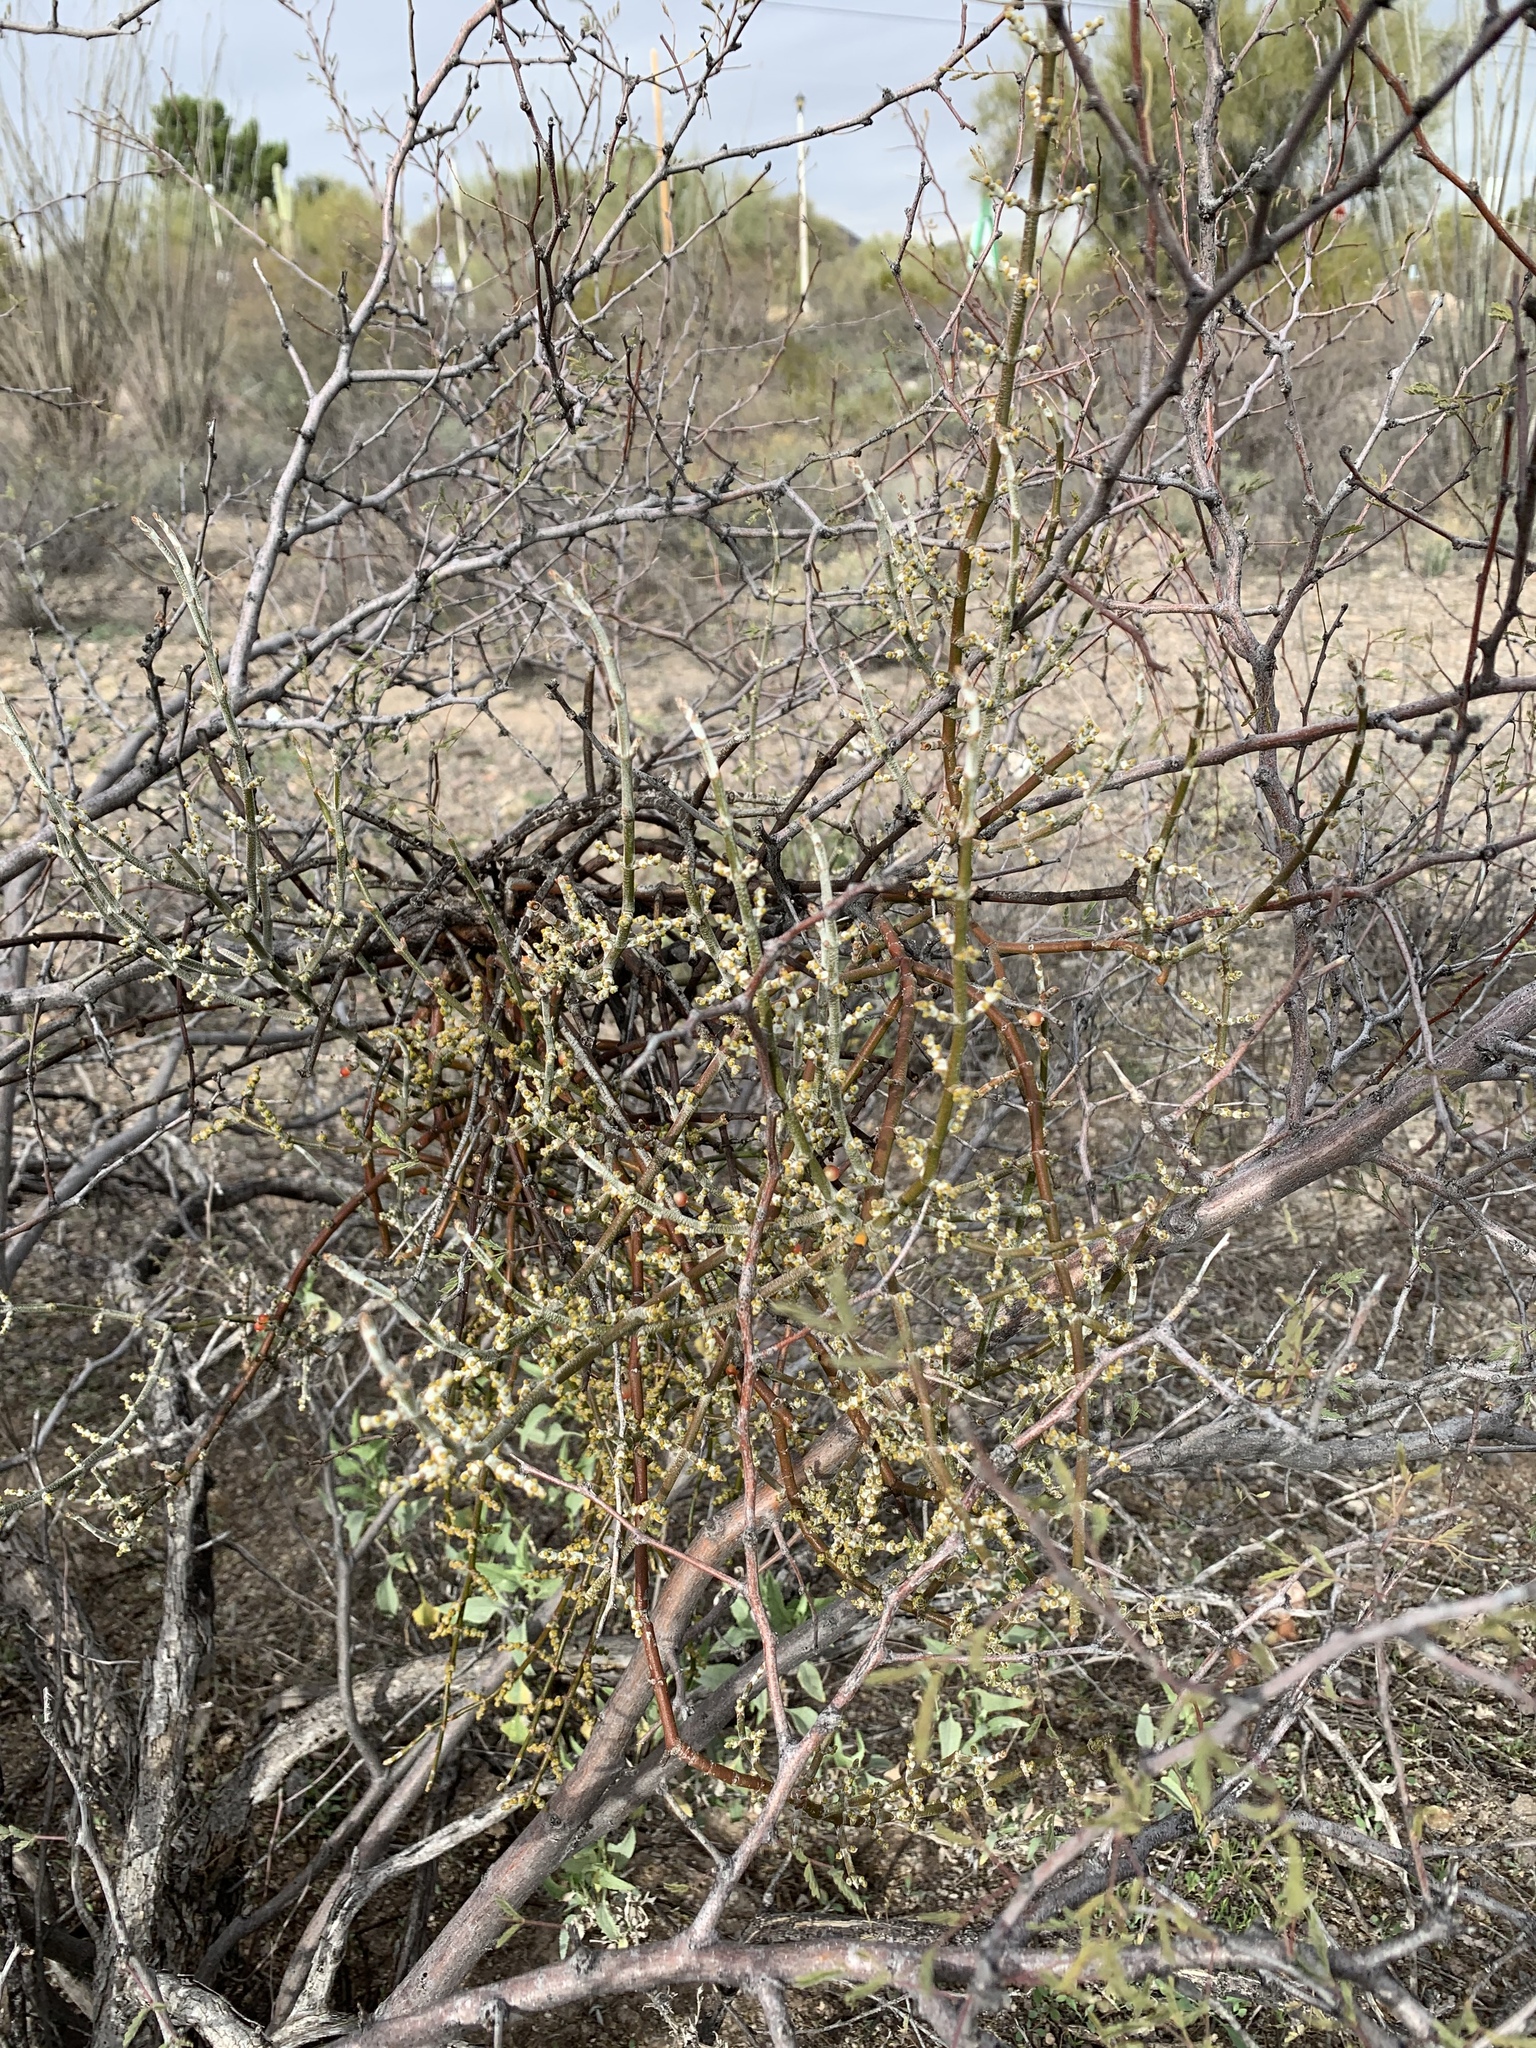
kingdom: Plantae
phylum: Tracheophyta
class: Magnoliopsida
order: Santalales
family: Viscaceae
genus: Phoradendron
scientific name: Phoradendron californicum
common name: Acacia mistletoe
